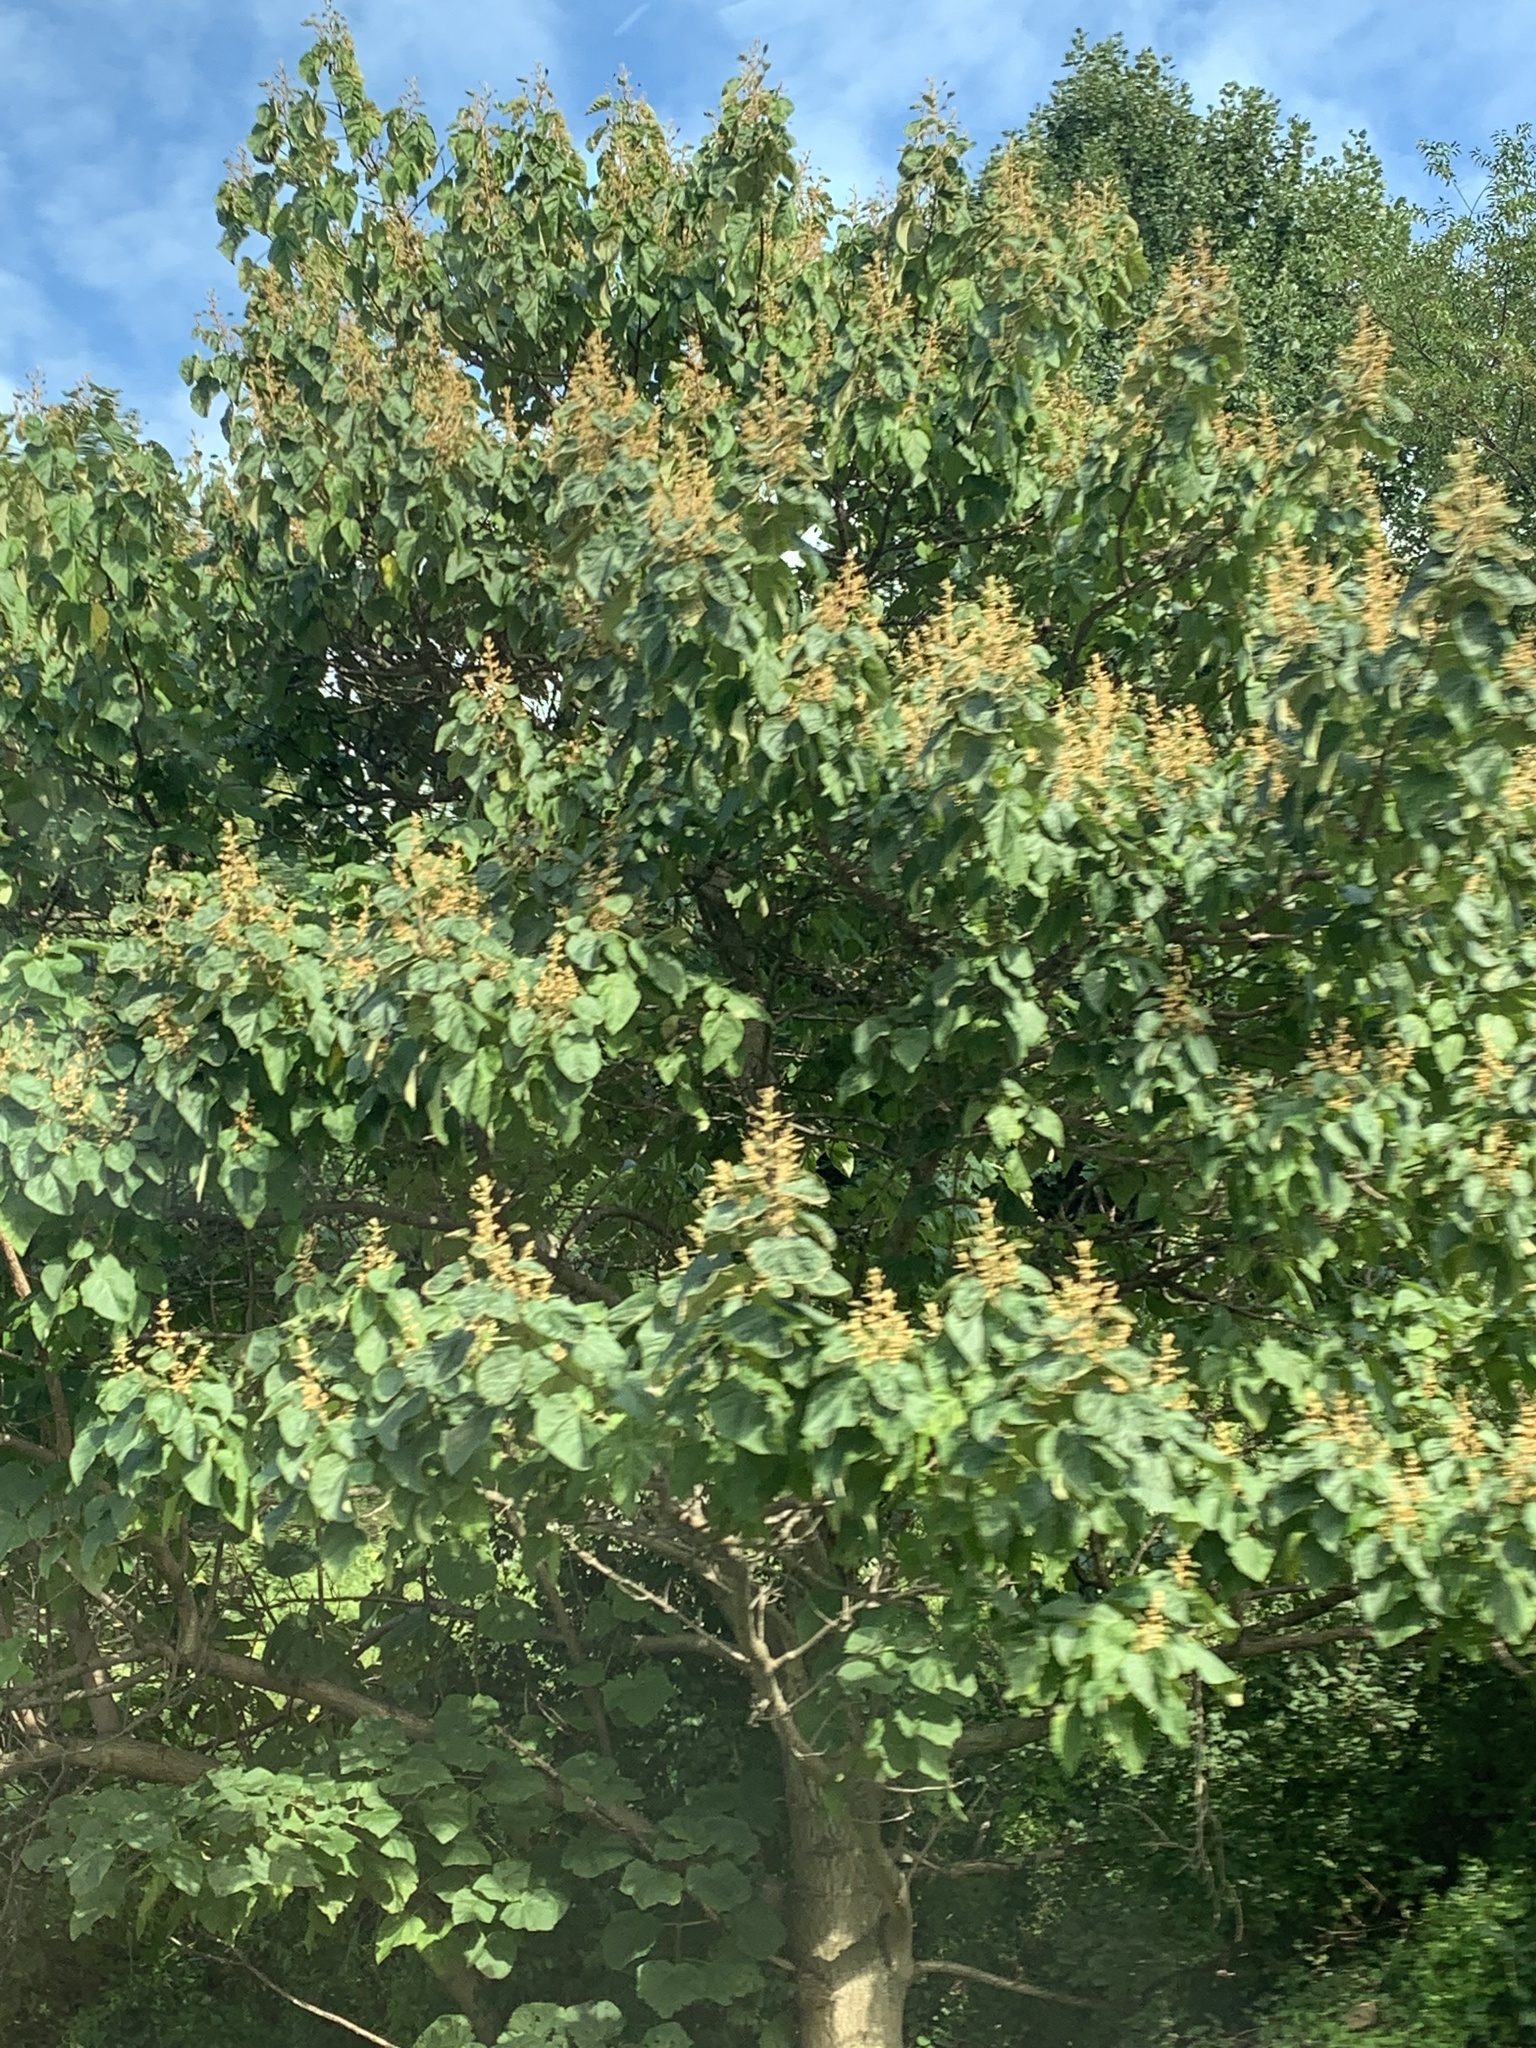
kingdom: Plantae
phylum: Tracheophyta
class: Magnoliopsida
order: Lamiales
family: Paulowniaceae
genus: Paulownia
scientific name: Paulownia tomentosa
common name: Foxglove-tree
